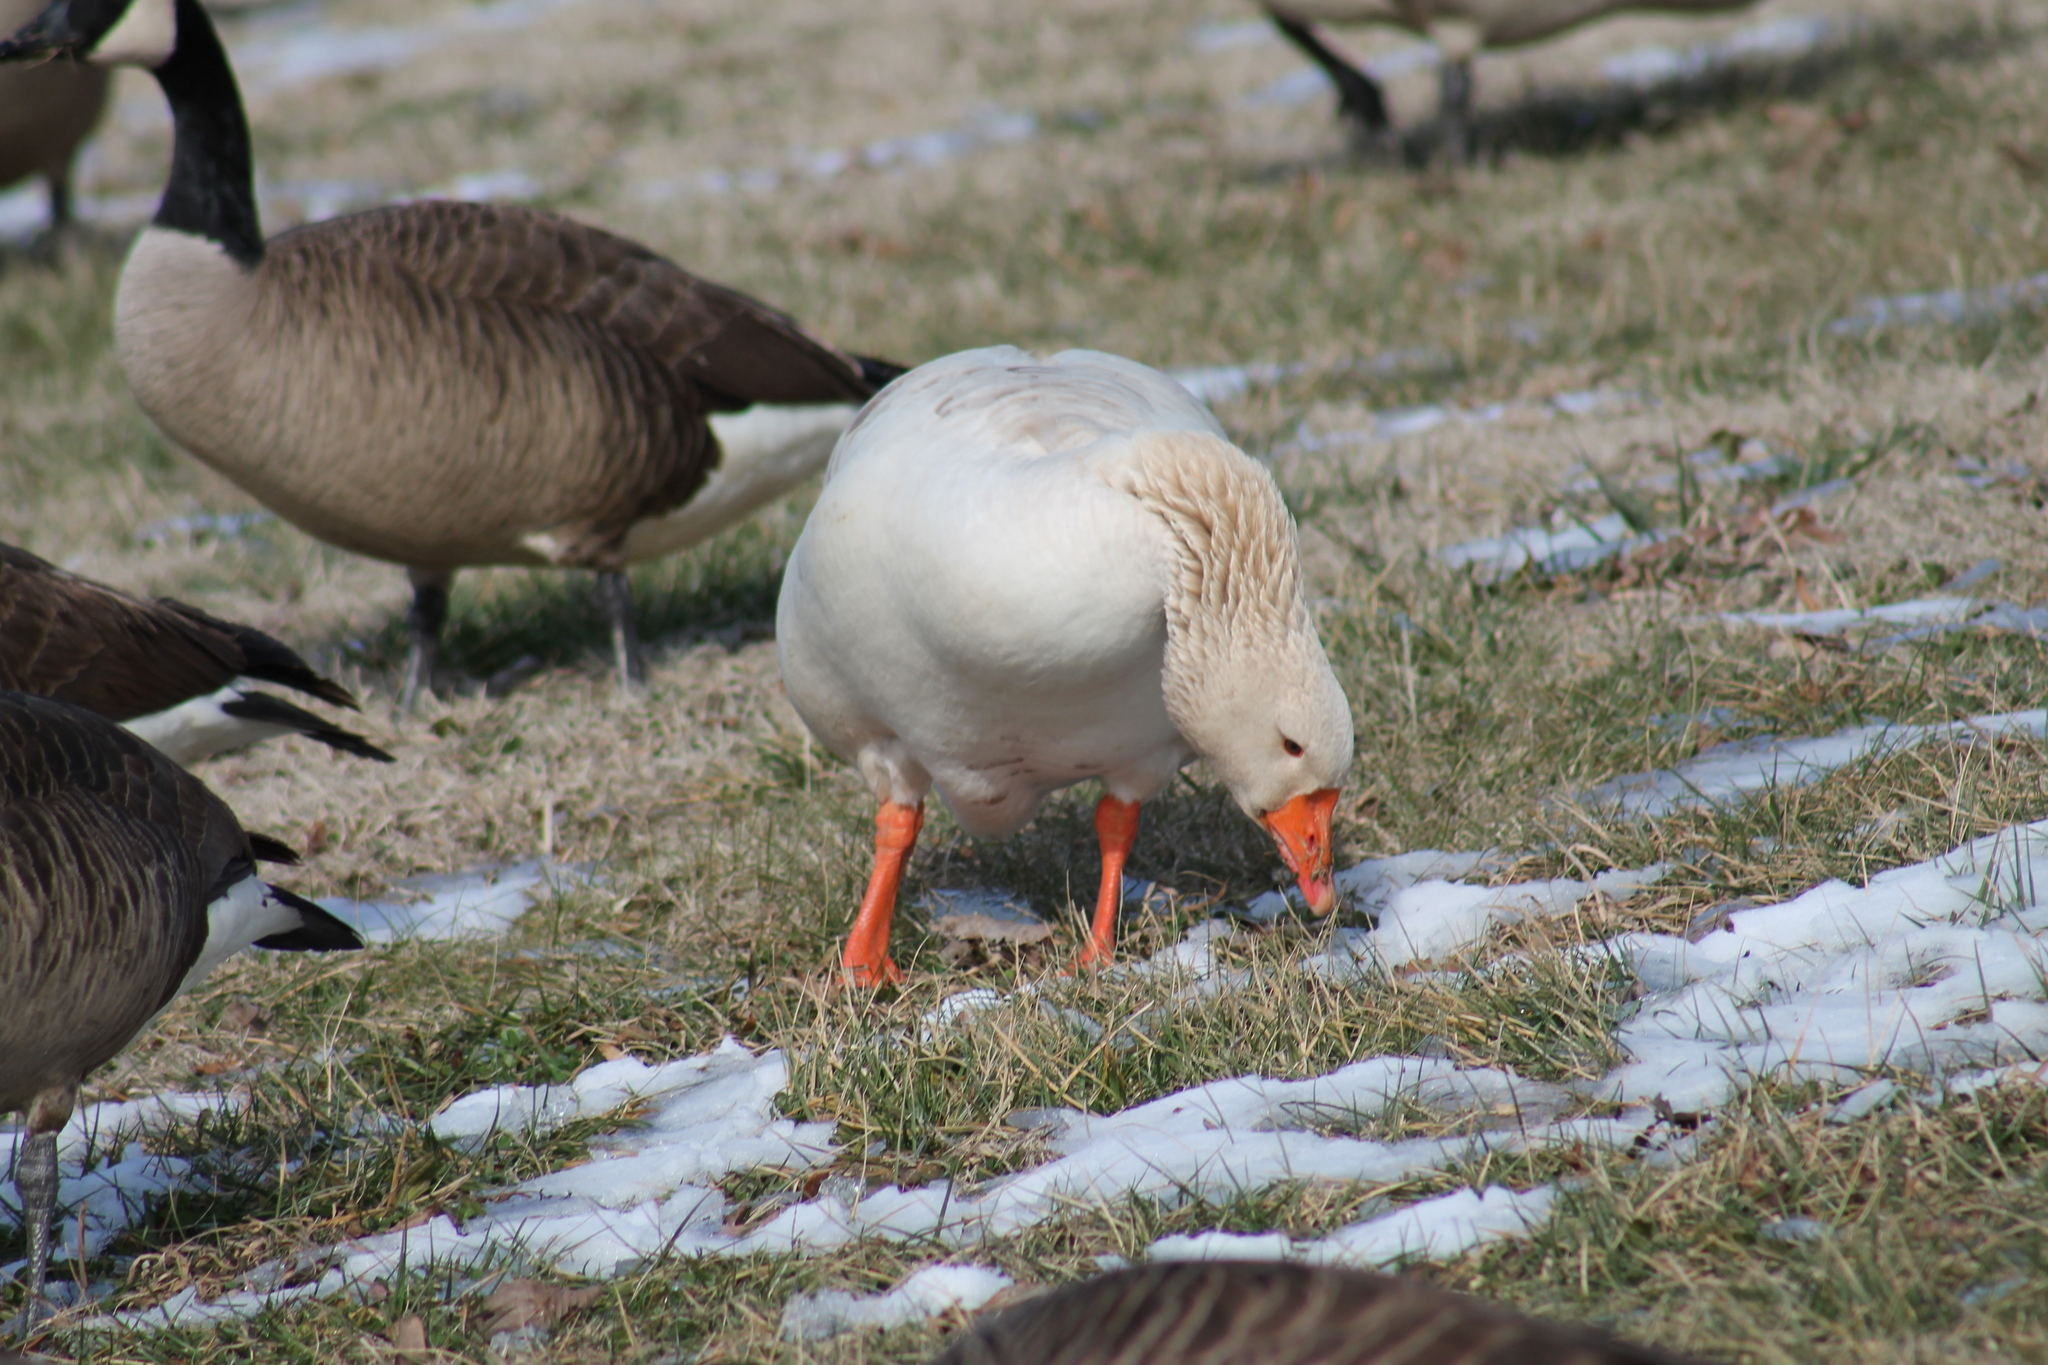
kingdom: Animalia
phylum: Chordata
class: Aves
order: Anseriformes
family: Anatidae
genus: Anser
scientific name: Anser anser
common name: Greylag goose
